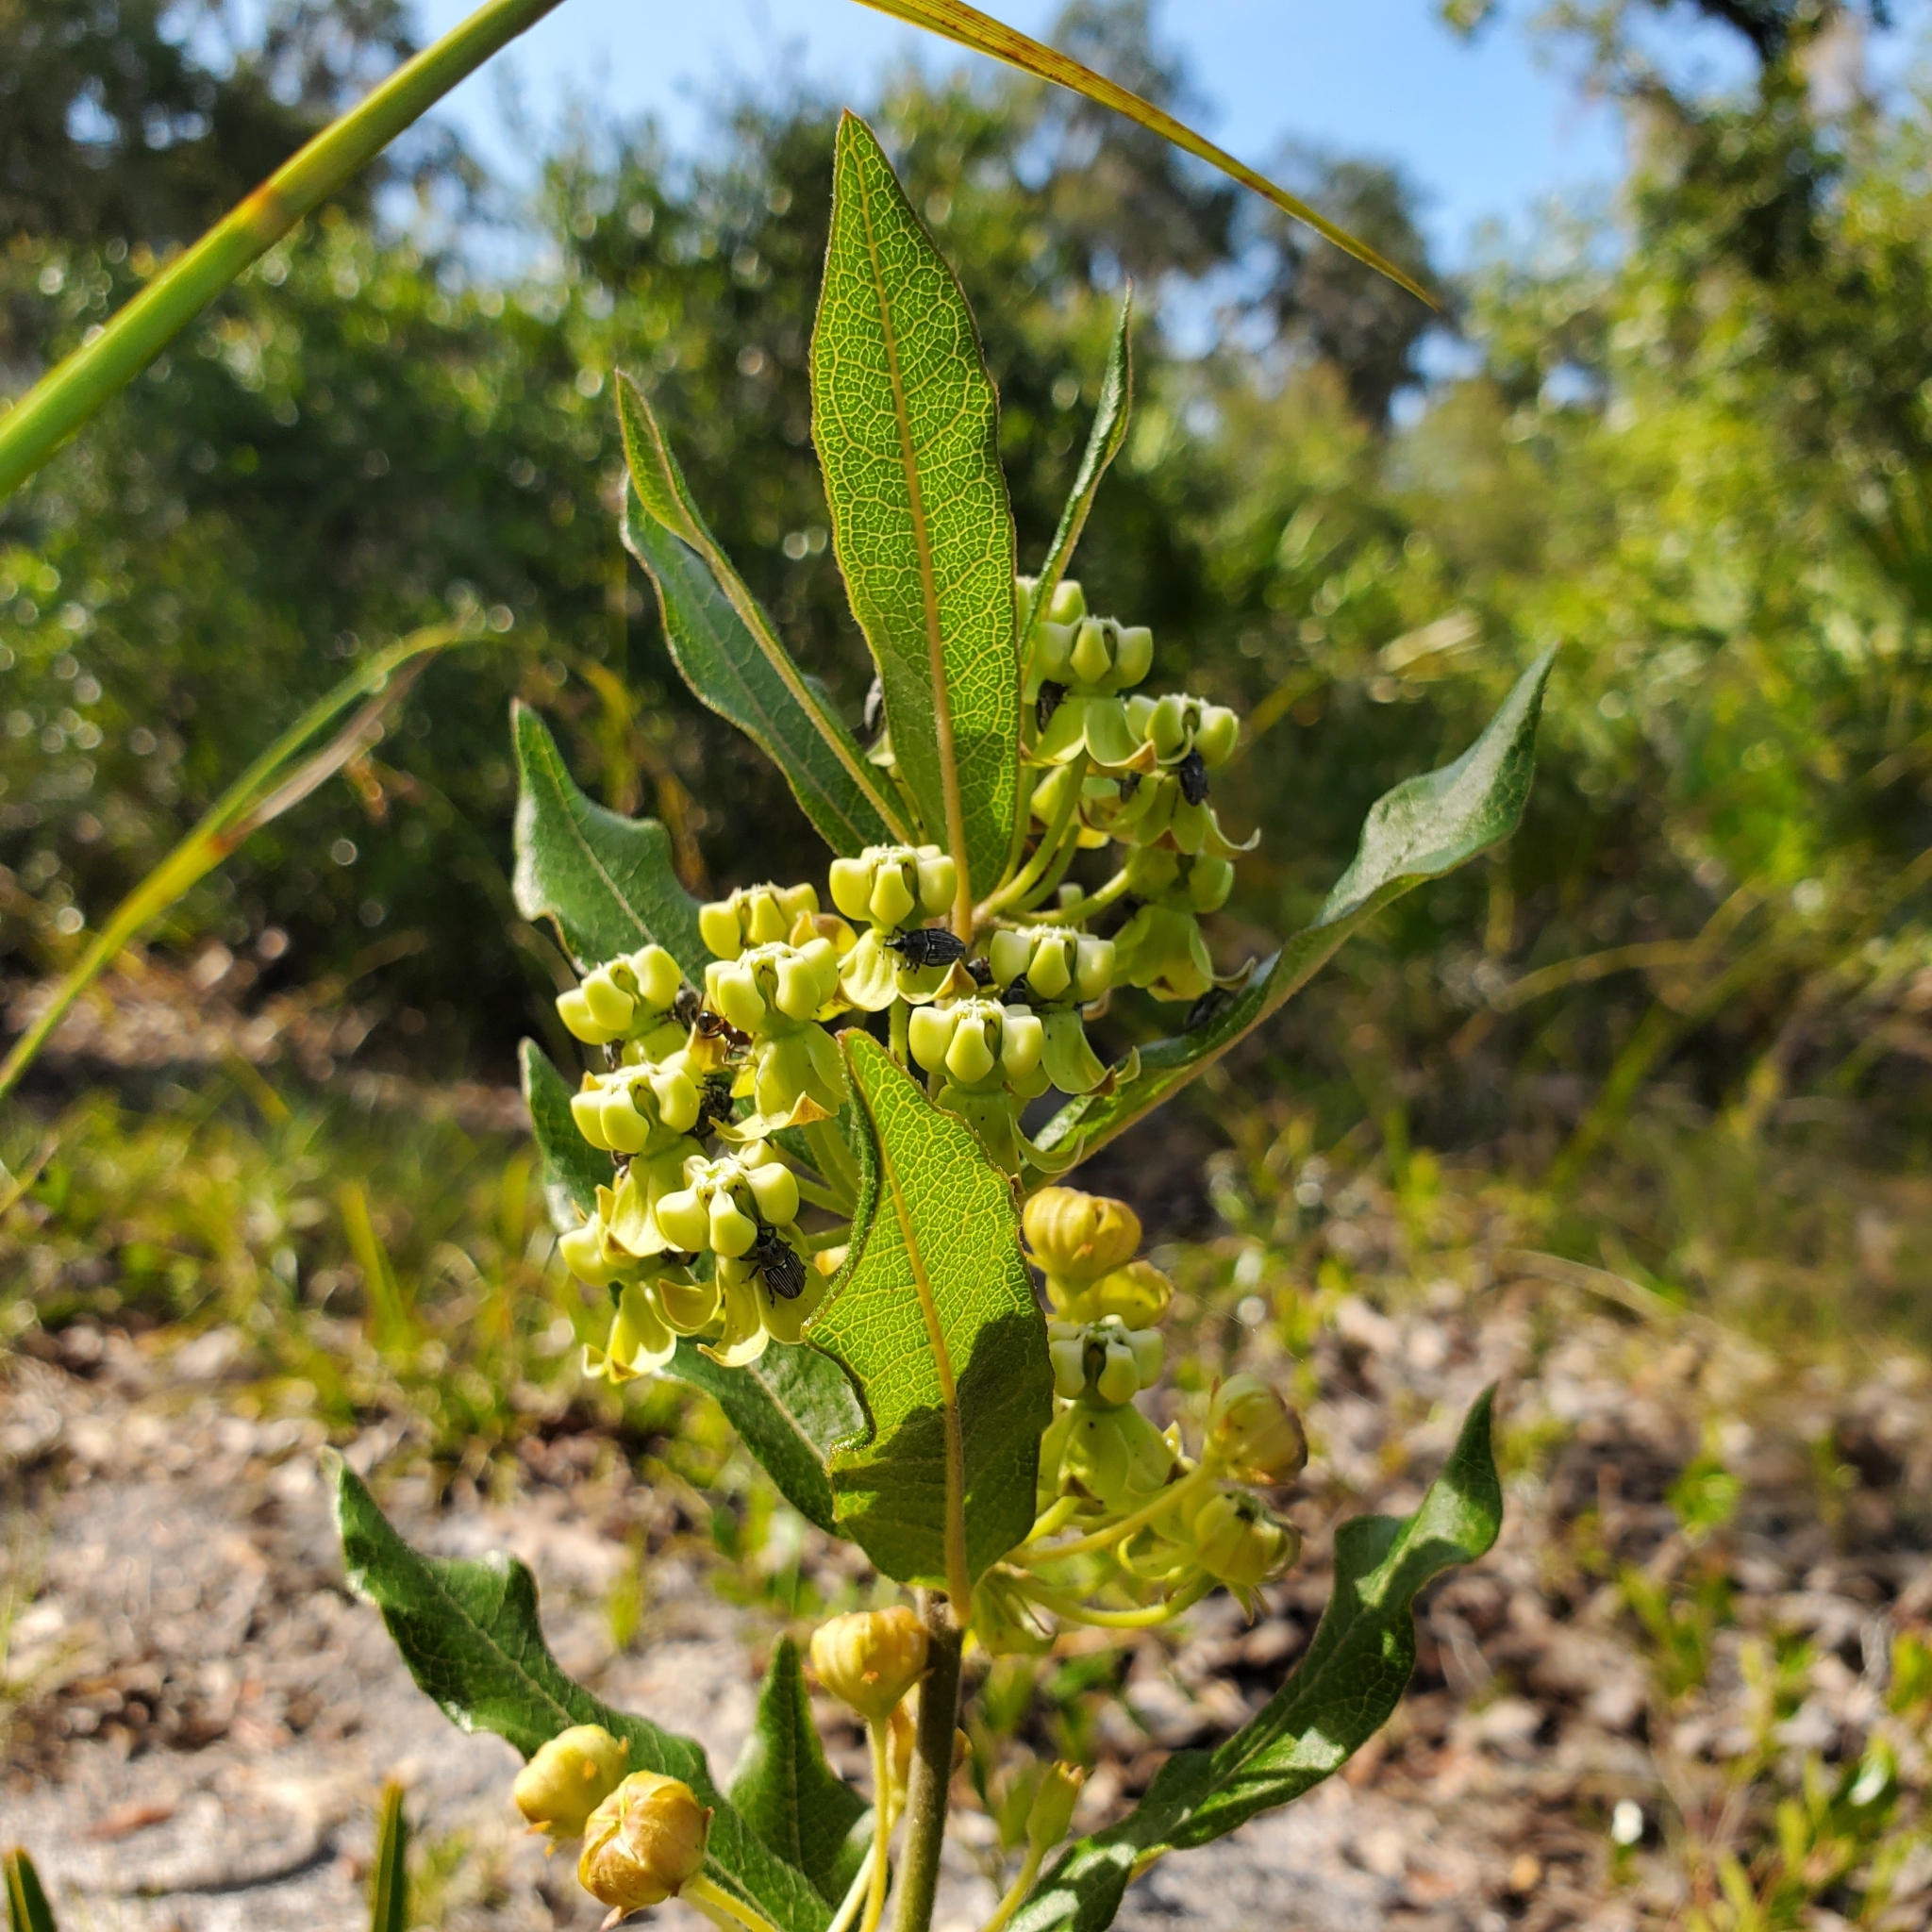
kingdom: Plantae
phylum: Tracheophyta
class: Magnoliopsida
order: Gentianales
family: Apocynaceae
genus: Asclepias
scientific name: Asclepias tomentosa
